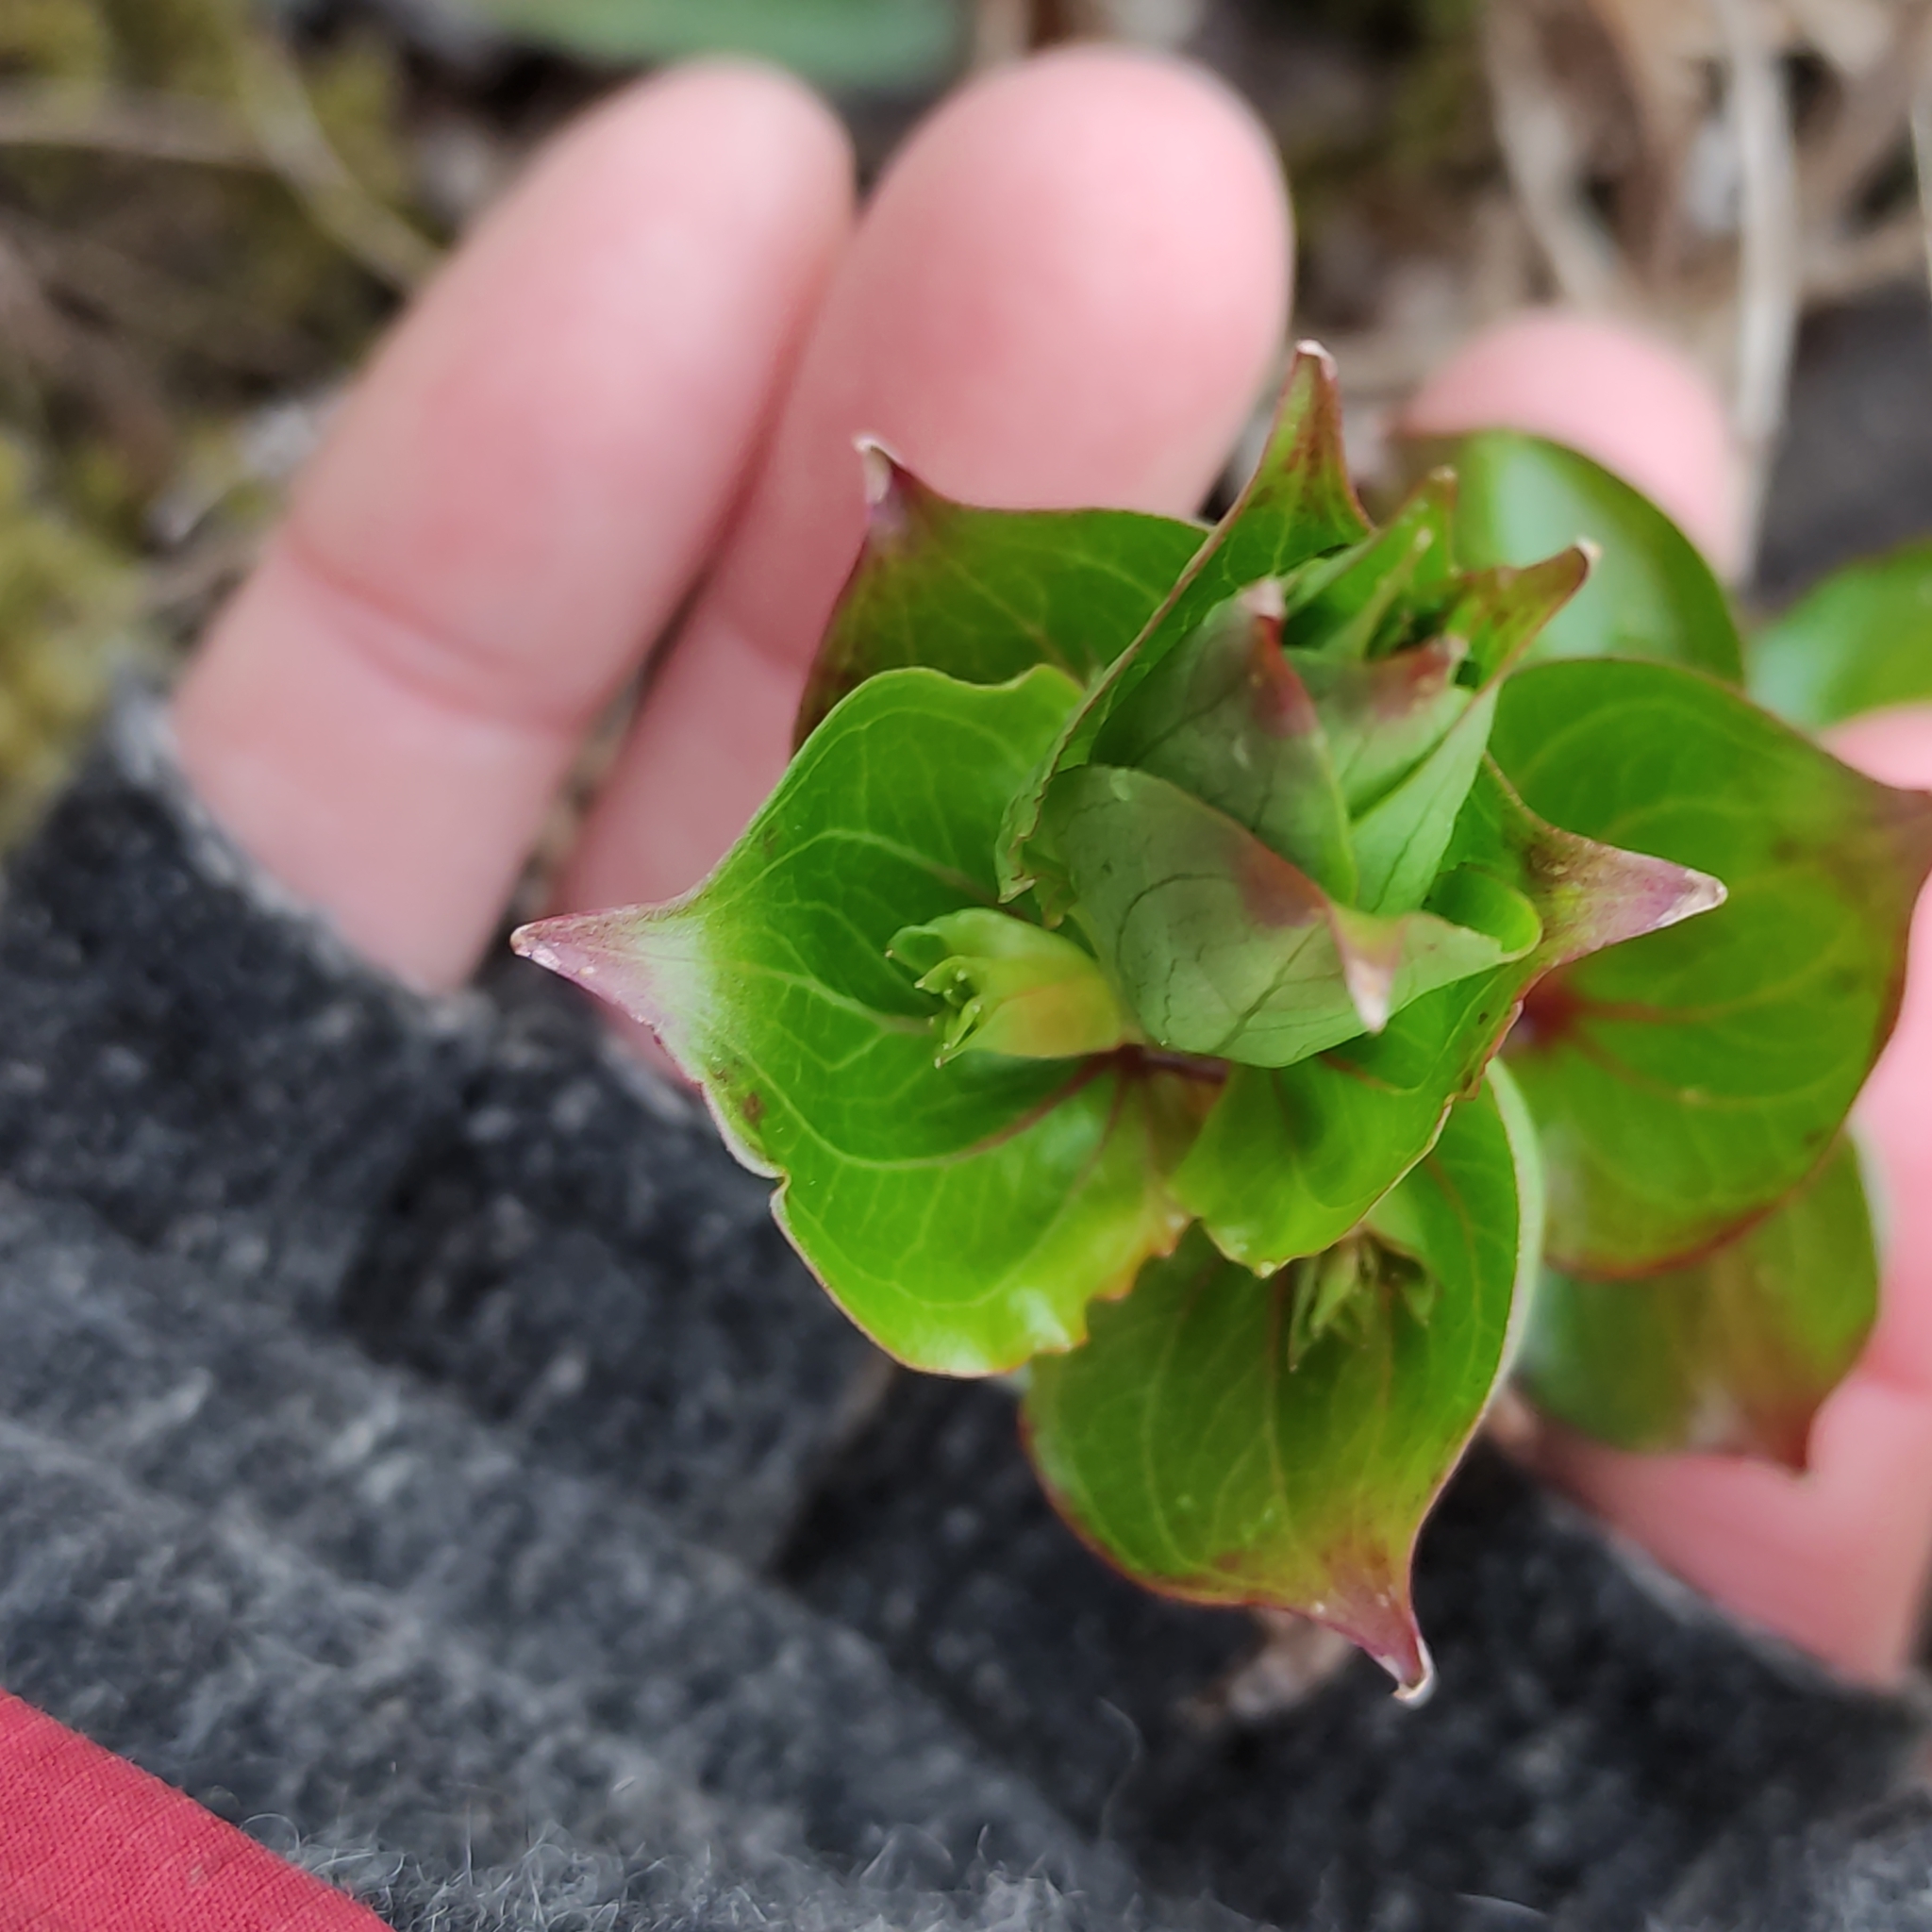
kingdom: Plantae
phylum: Tracheophyta
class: Magnoliopsida
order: Cucurbitales
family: Coriariaceae
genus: Coriaria
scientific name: Coriaria sarmentosa
